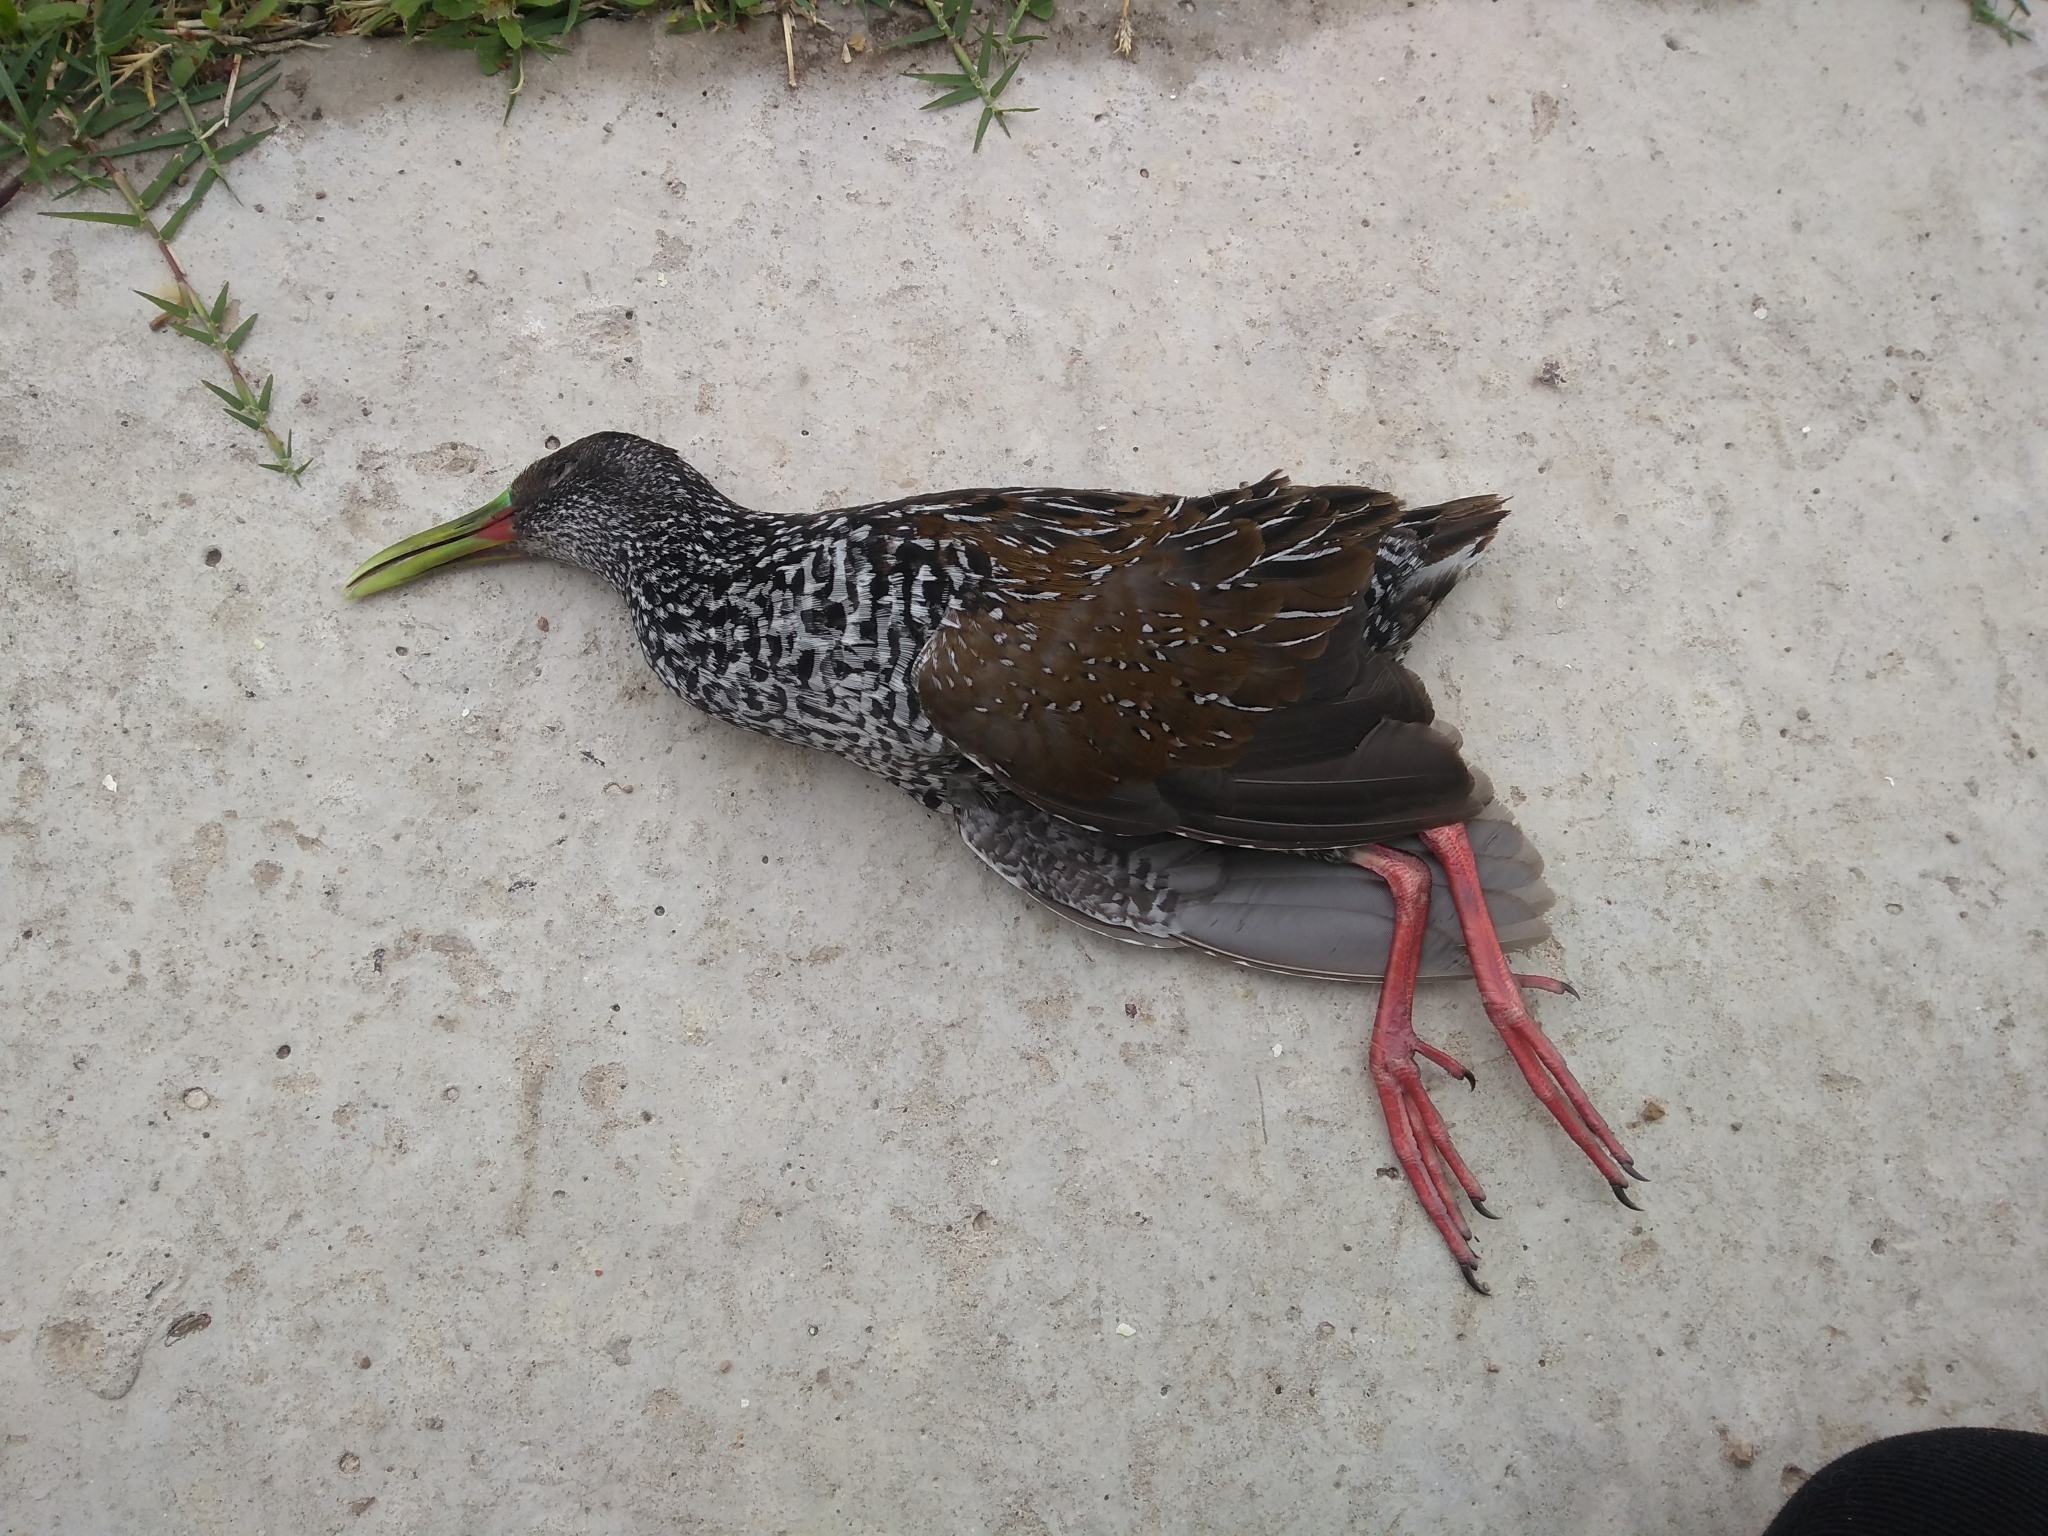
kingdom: Animalia
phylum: Chordata
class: Aves
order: Gruiformes
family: Rallidae
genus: Pardirallus
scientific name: Pardirallus maculatus
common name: Spotted rail
